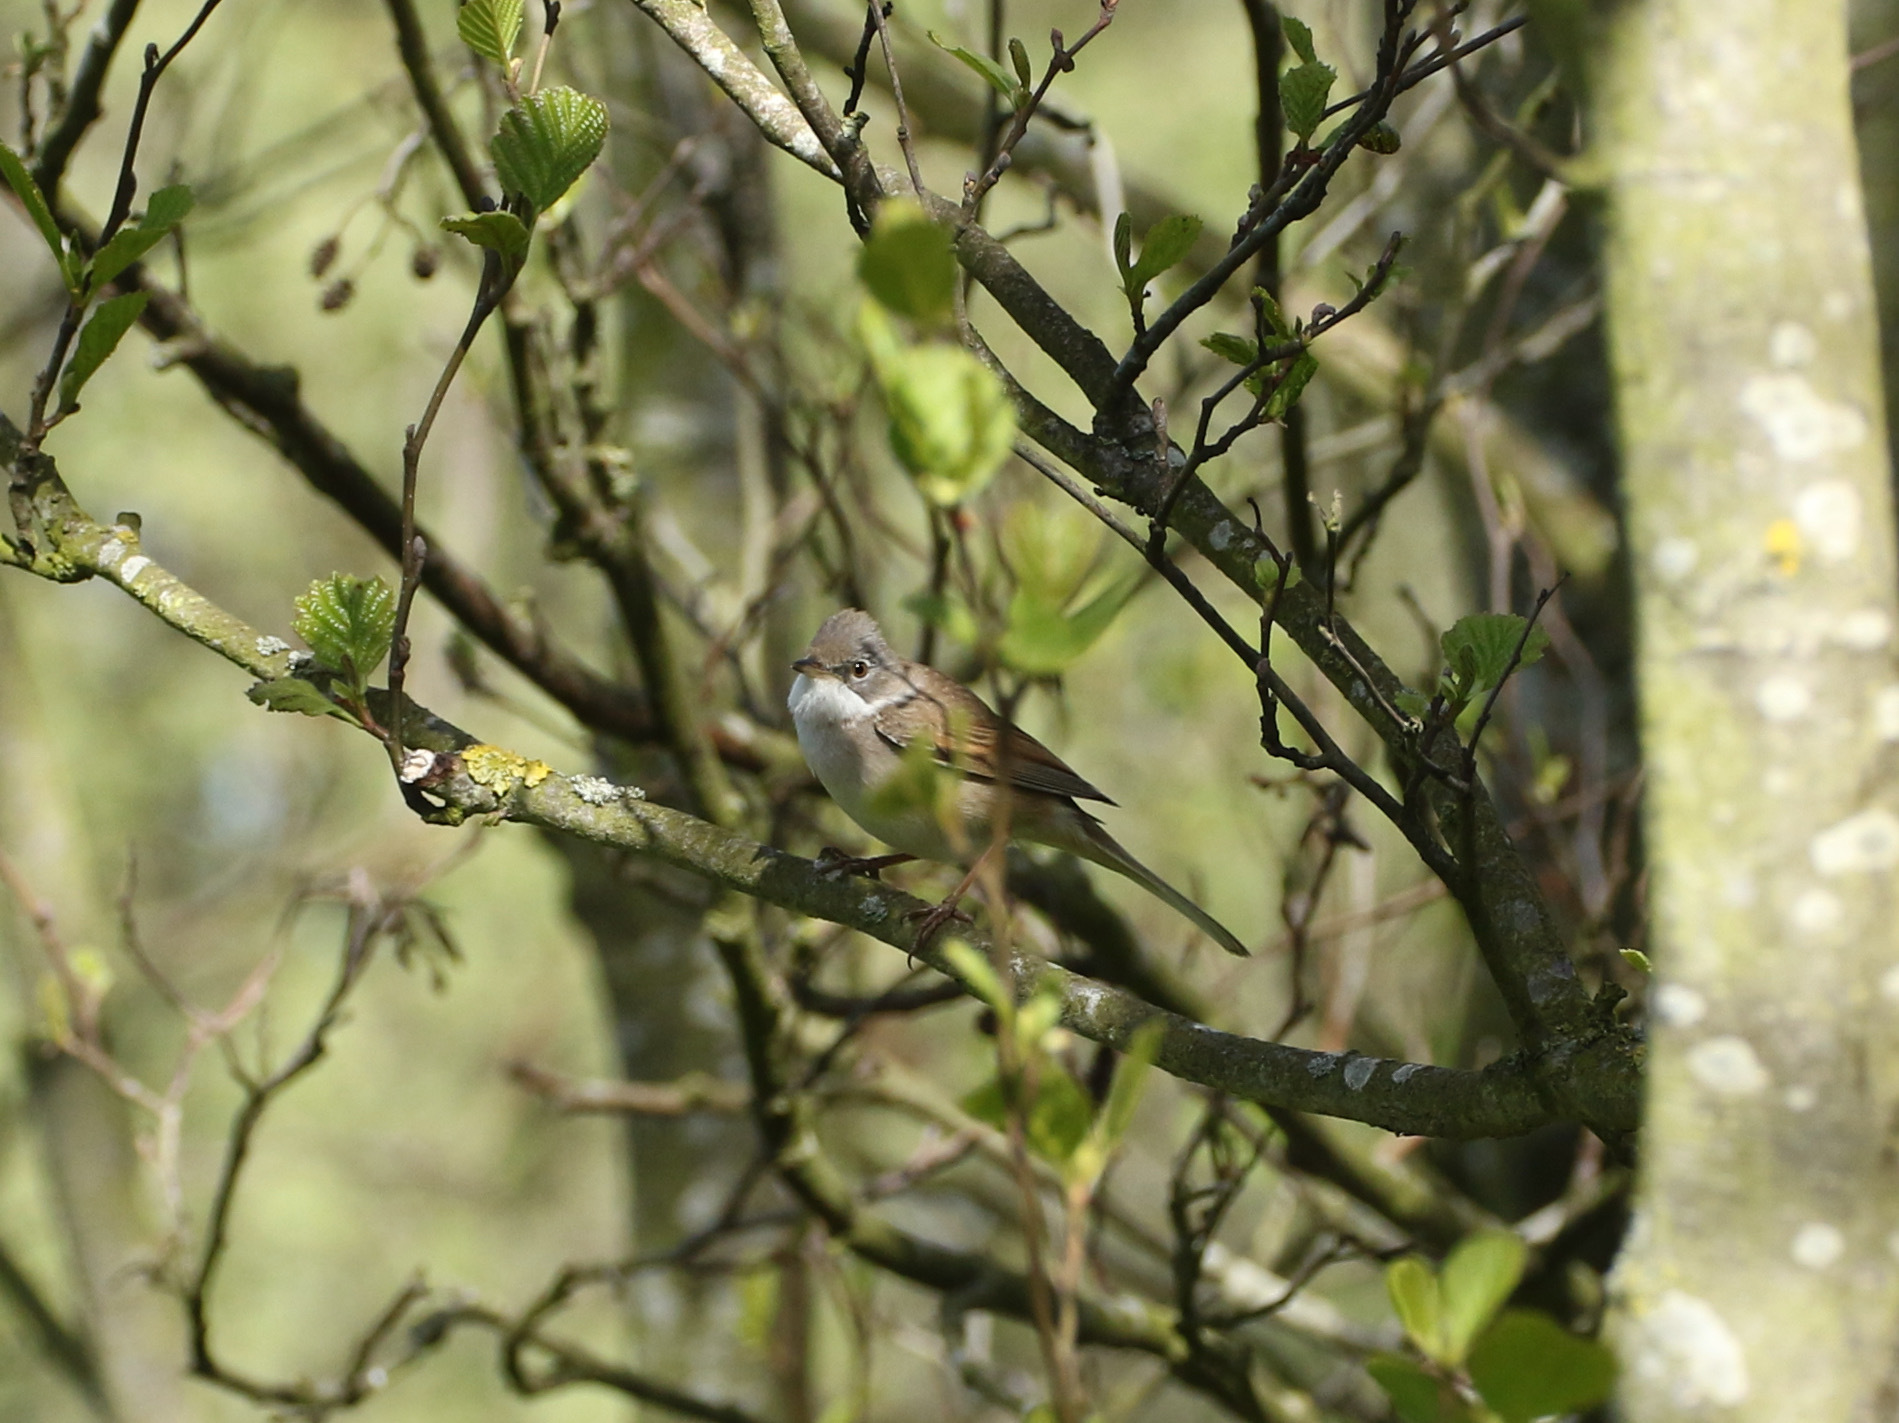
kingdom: Animalia
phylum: Chordata
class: Aves
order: Passeriformes
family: Sylviidae
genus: Sylvia
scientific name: Sylvia communis
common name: Common whitethroat
